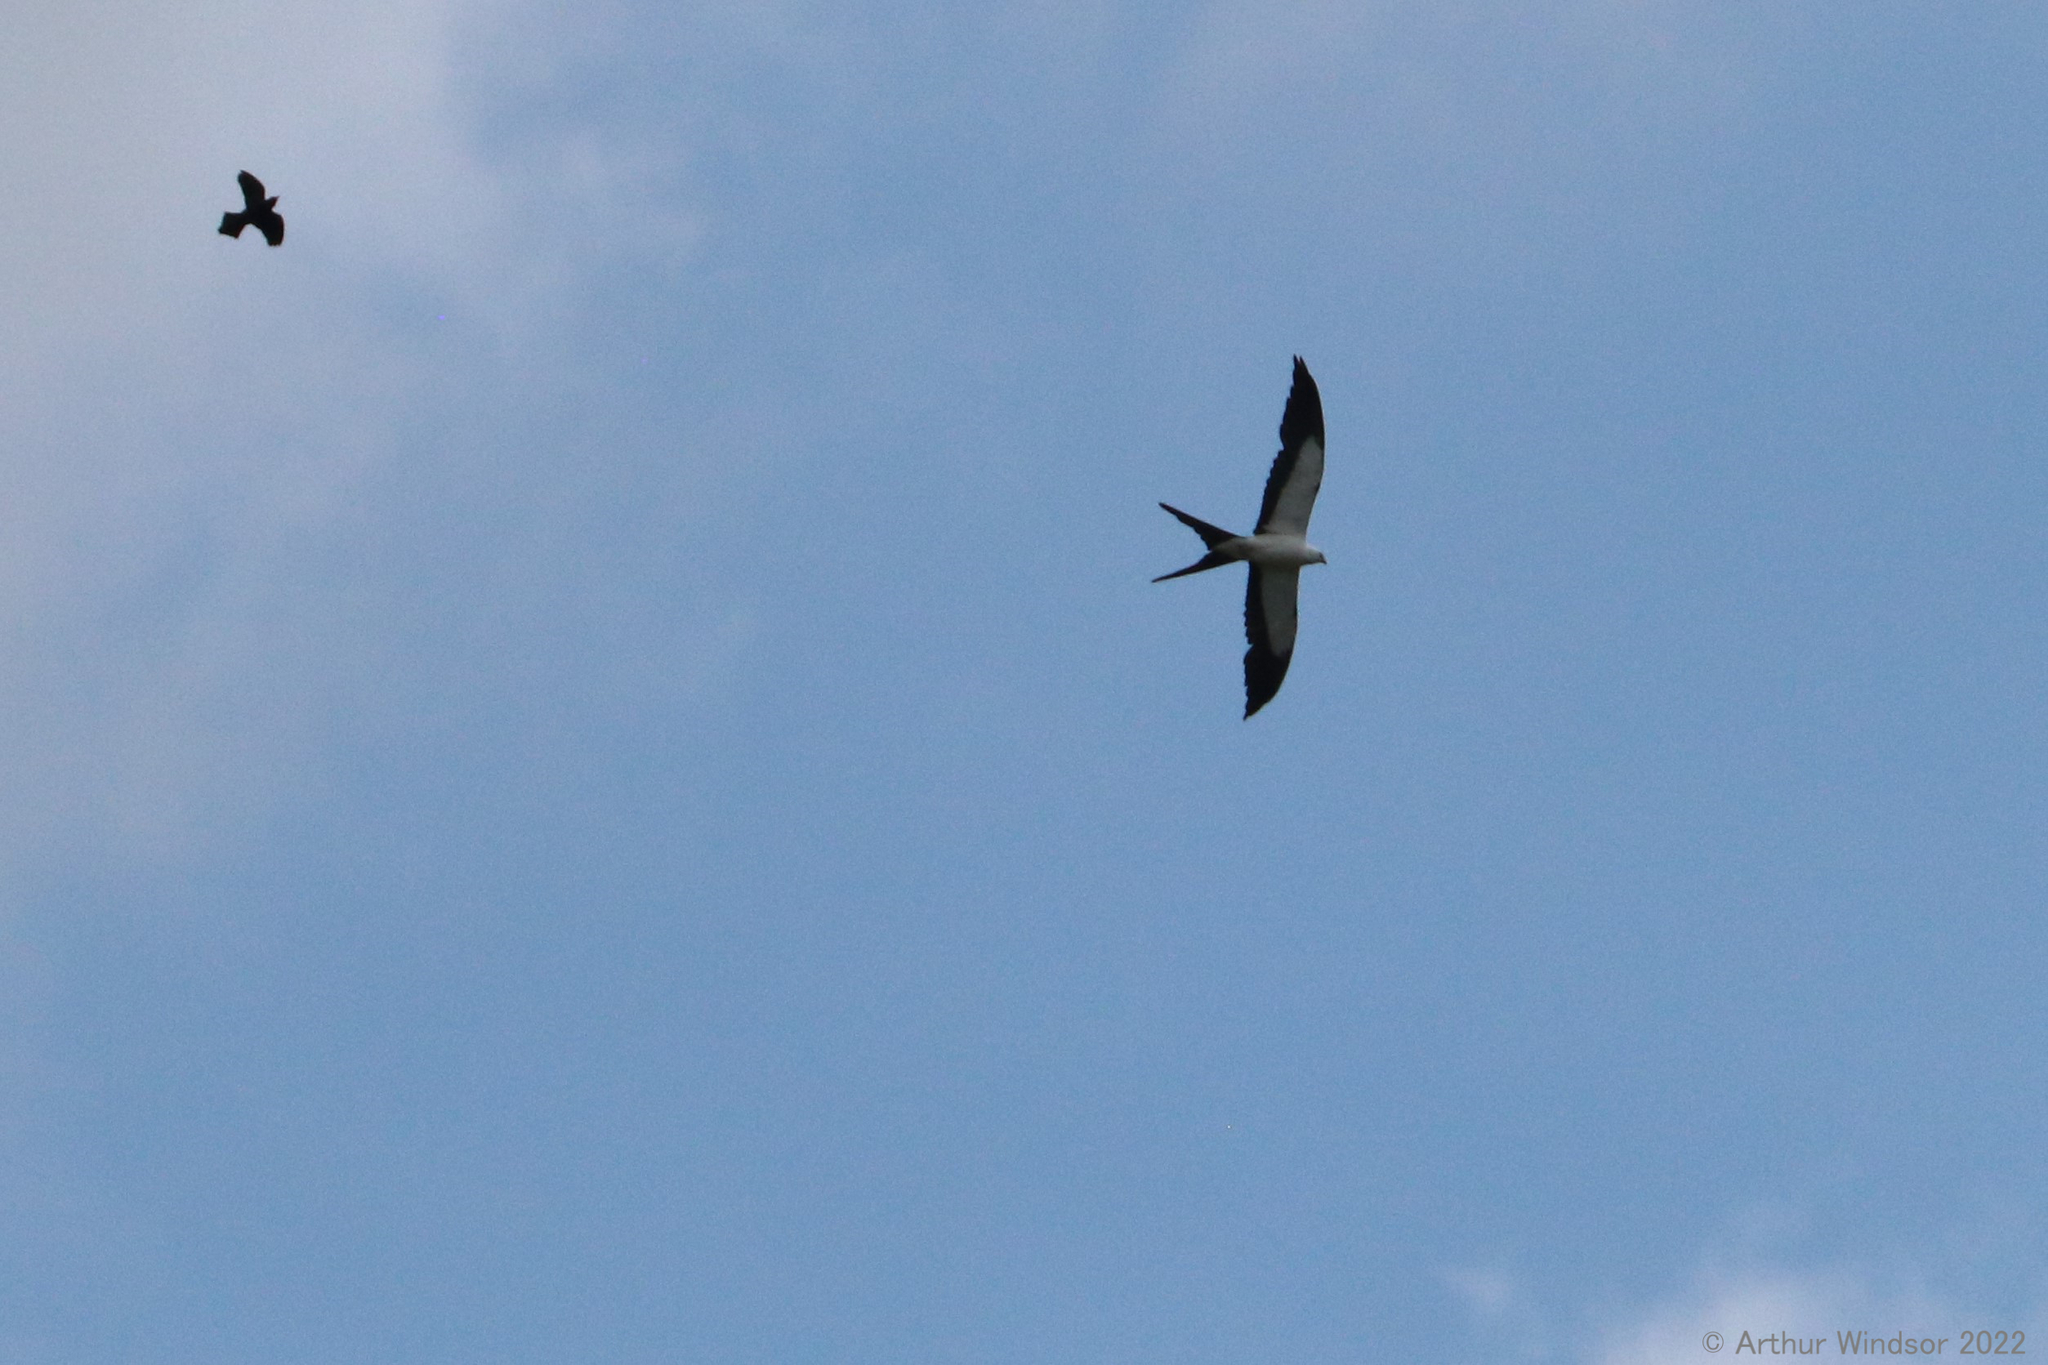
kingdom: Animalia
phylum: Chordata
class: Aves
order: Accipitriformes
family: Accipitridae
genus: Elanoides
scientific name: Elanoides forficatus
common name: Swallow-tailed kite
